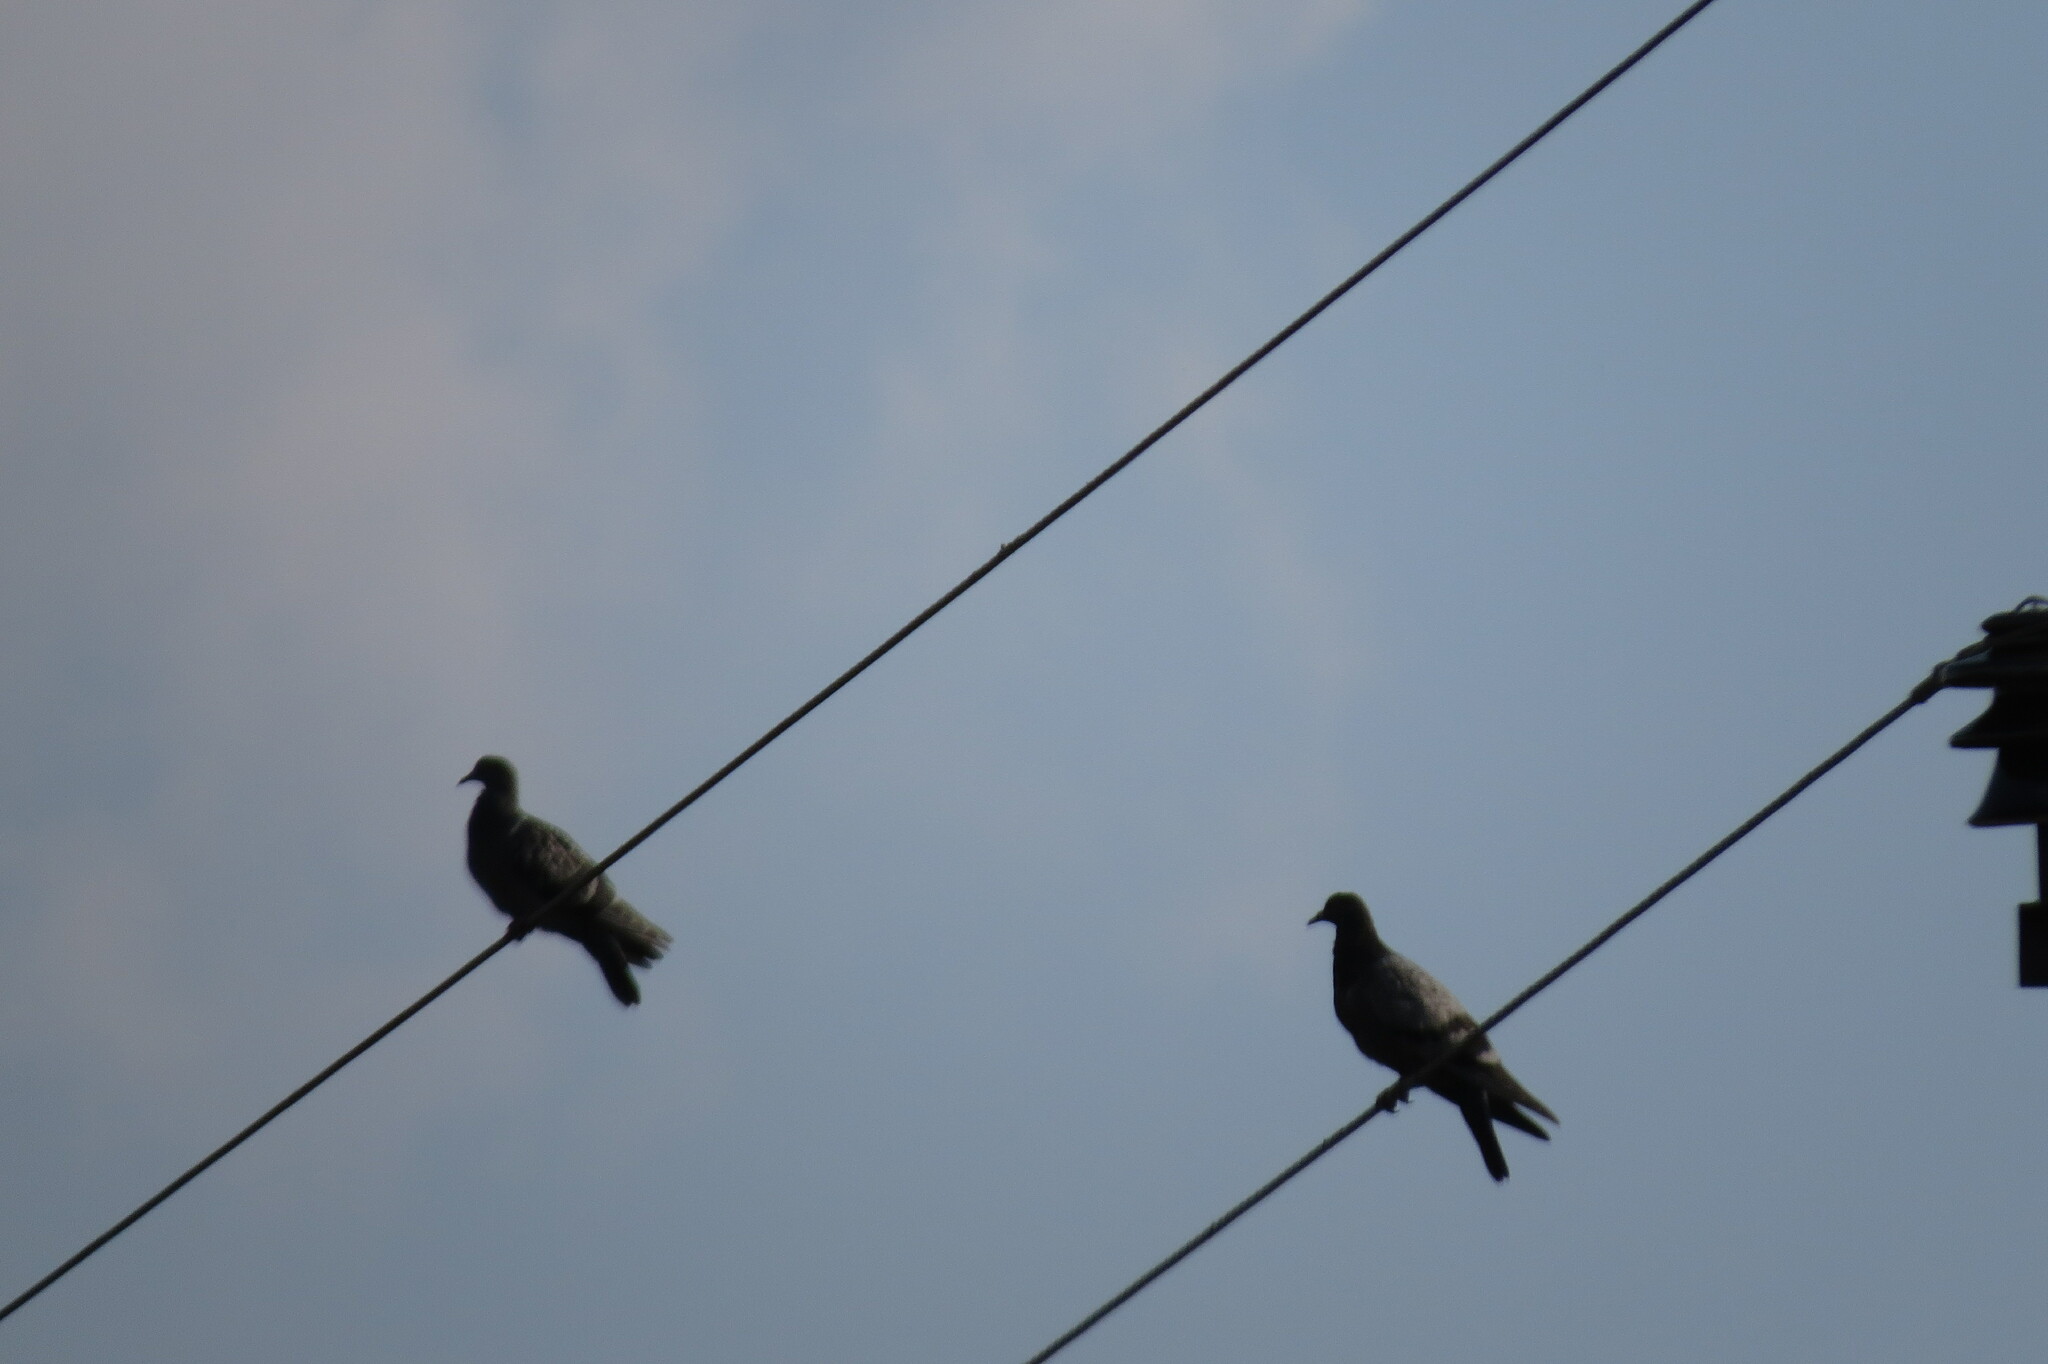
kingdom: Animalia
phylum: Chordata
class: Aves
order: Columbiformes
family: Columbidae
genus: Columba
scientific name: Columba livia
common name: Rock pigeon
